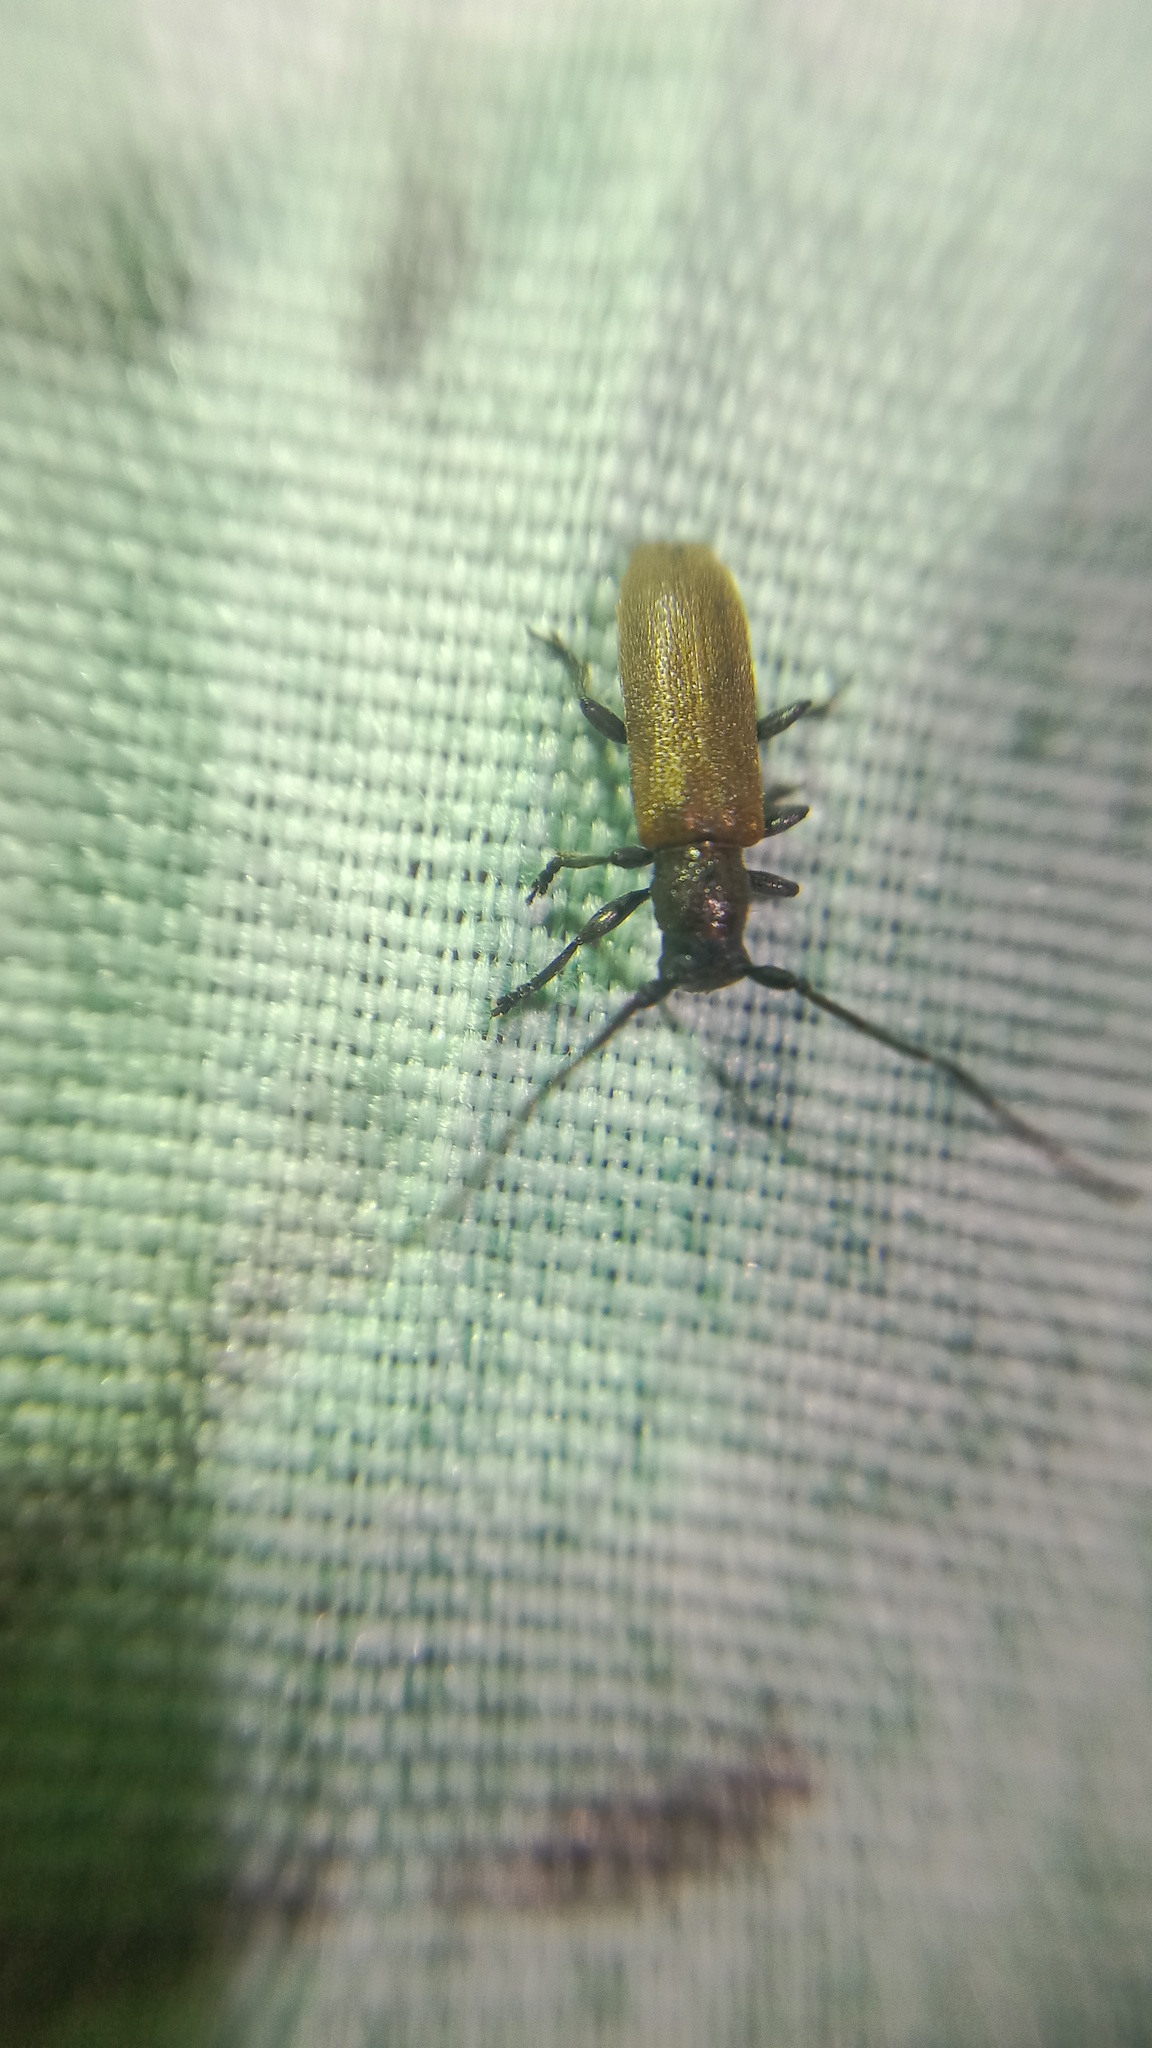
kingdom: Animalia
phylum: Arthropoda
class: Insecta
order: Coleoptera
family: Cerambycidae
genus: Anaesthetis
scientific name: Anaesthetis testacea
